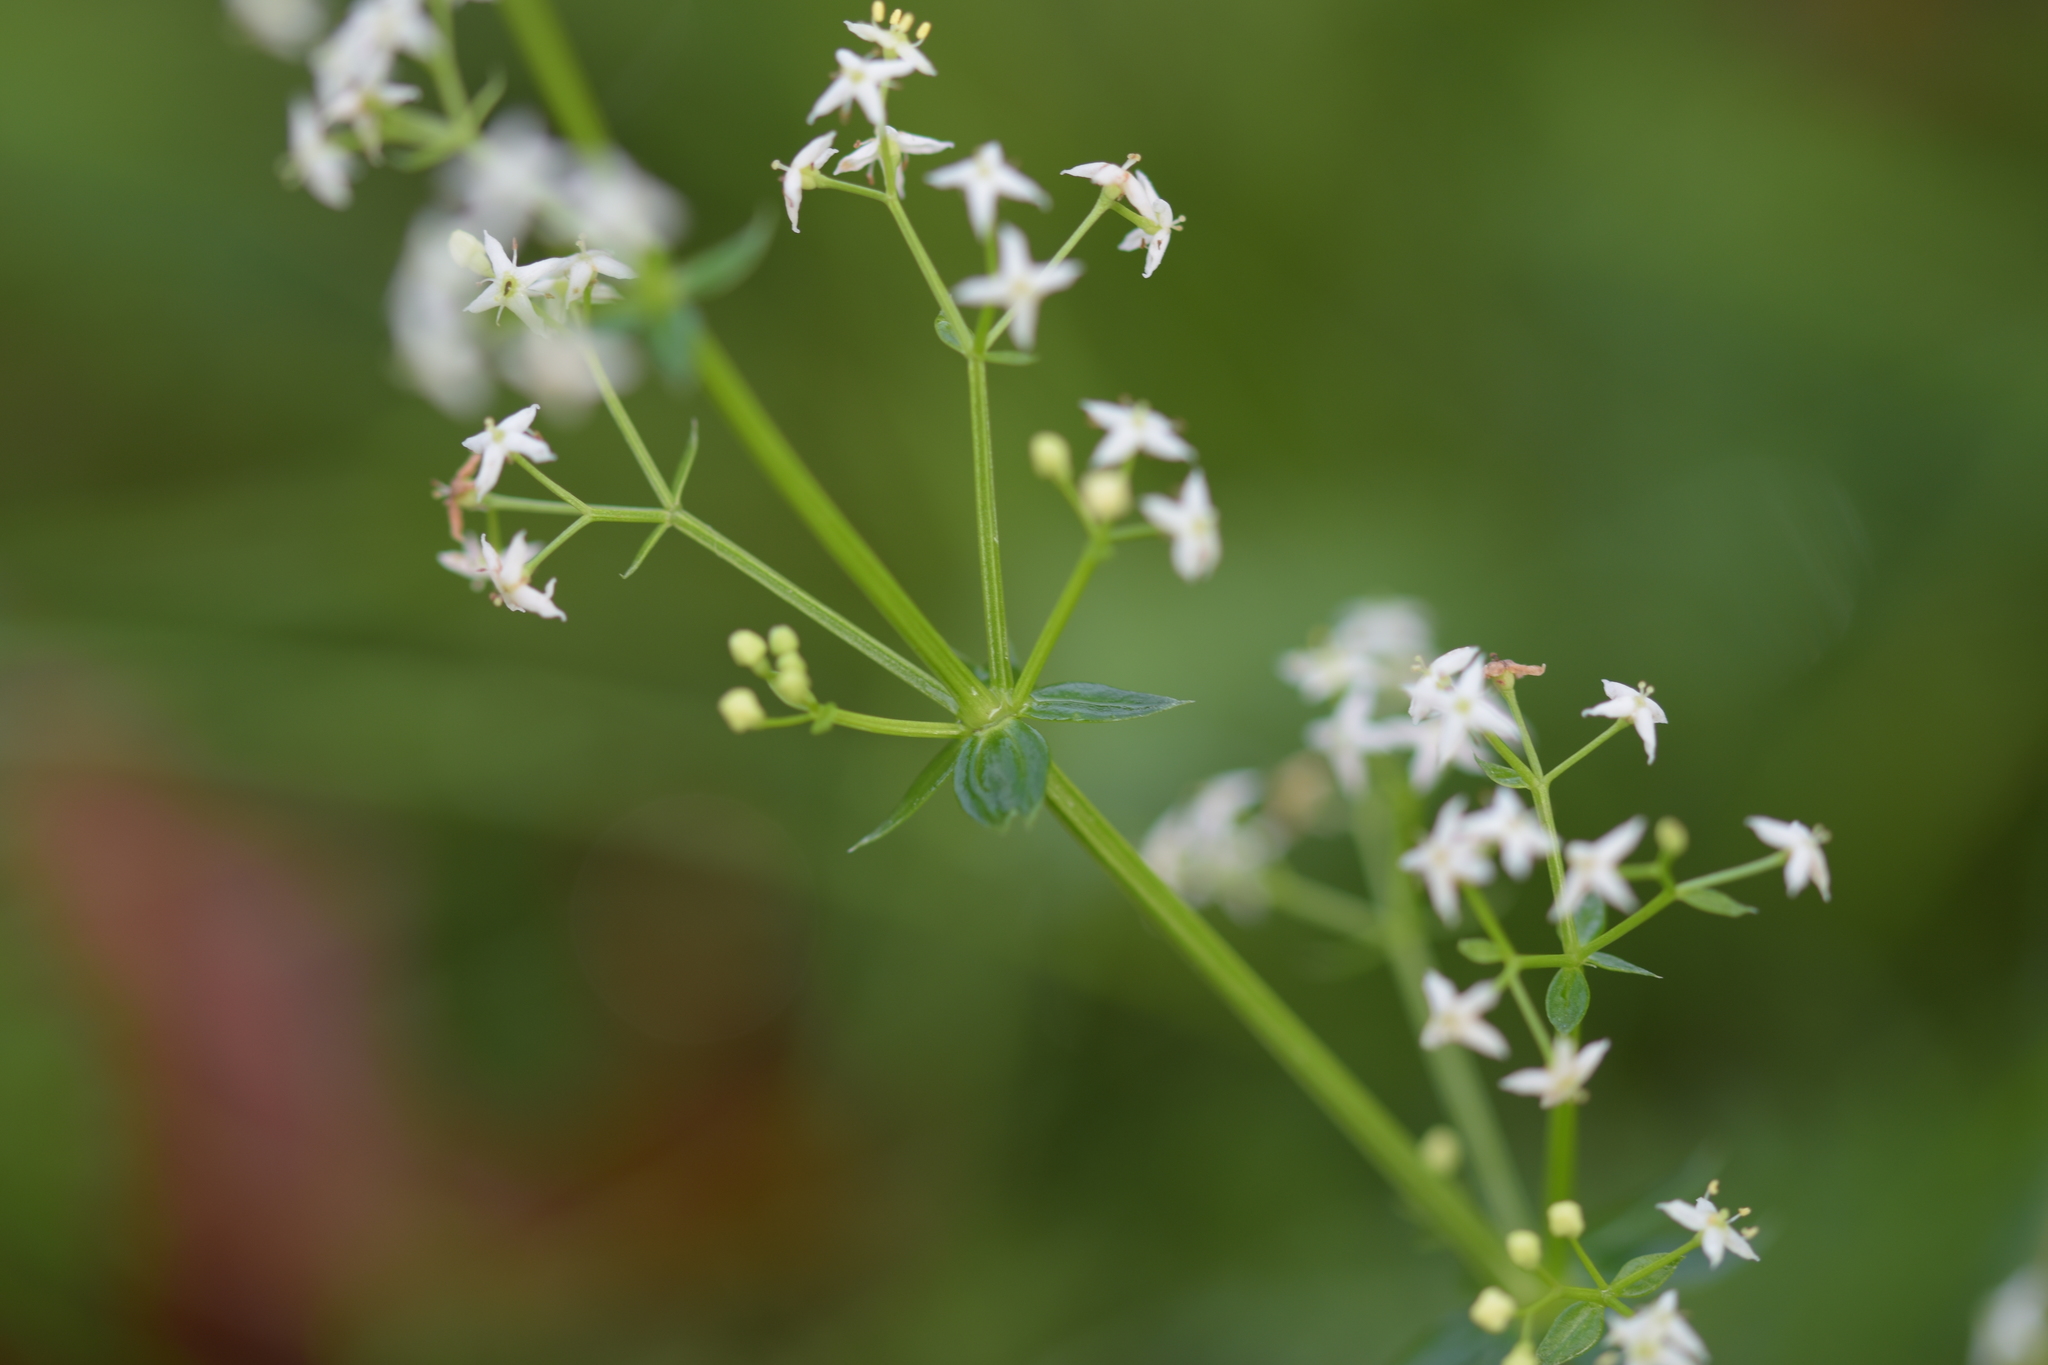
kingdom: Plantae
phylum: Tracheophyta
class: Magnoliopsida
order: Gentianales
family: Rubiaceae
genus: Galium
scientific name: Galium album
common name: White bedstraw
